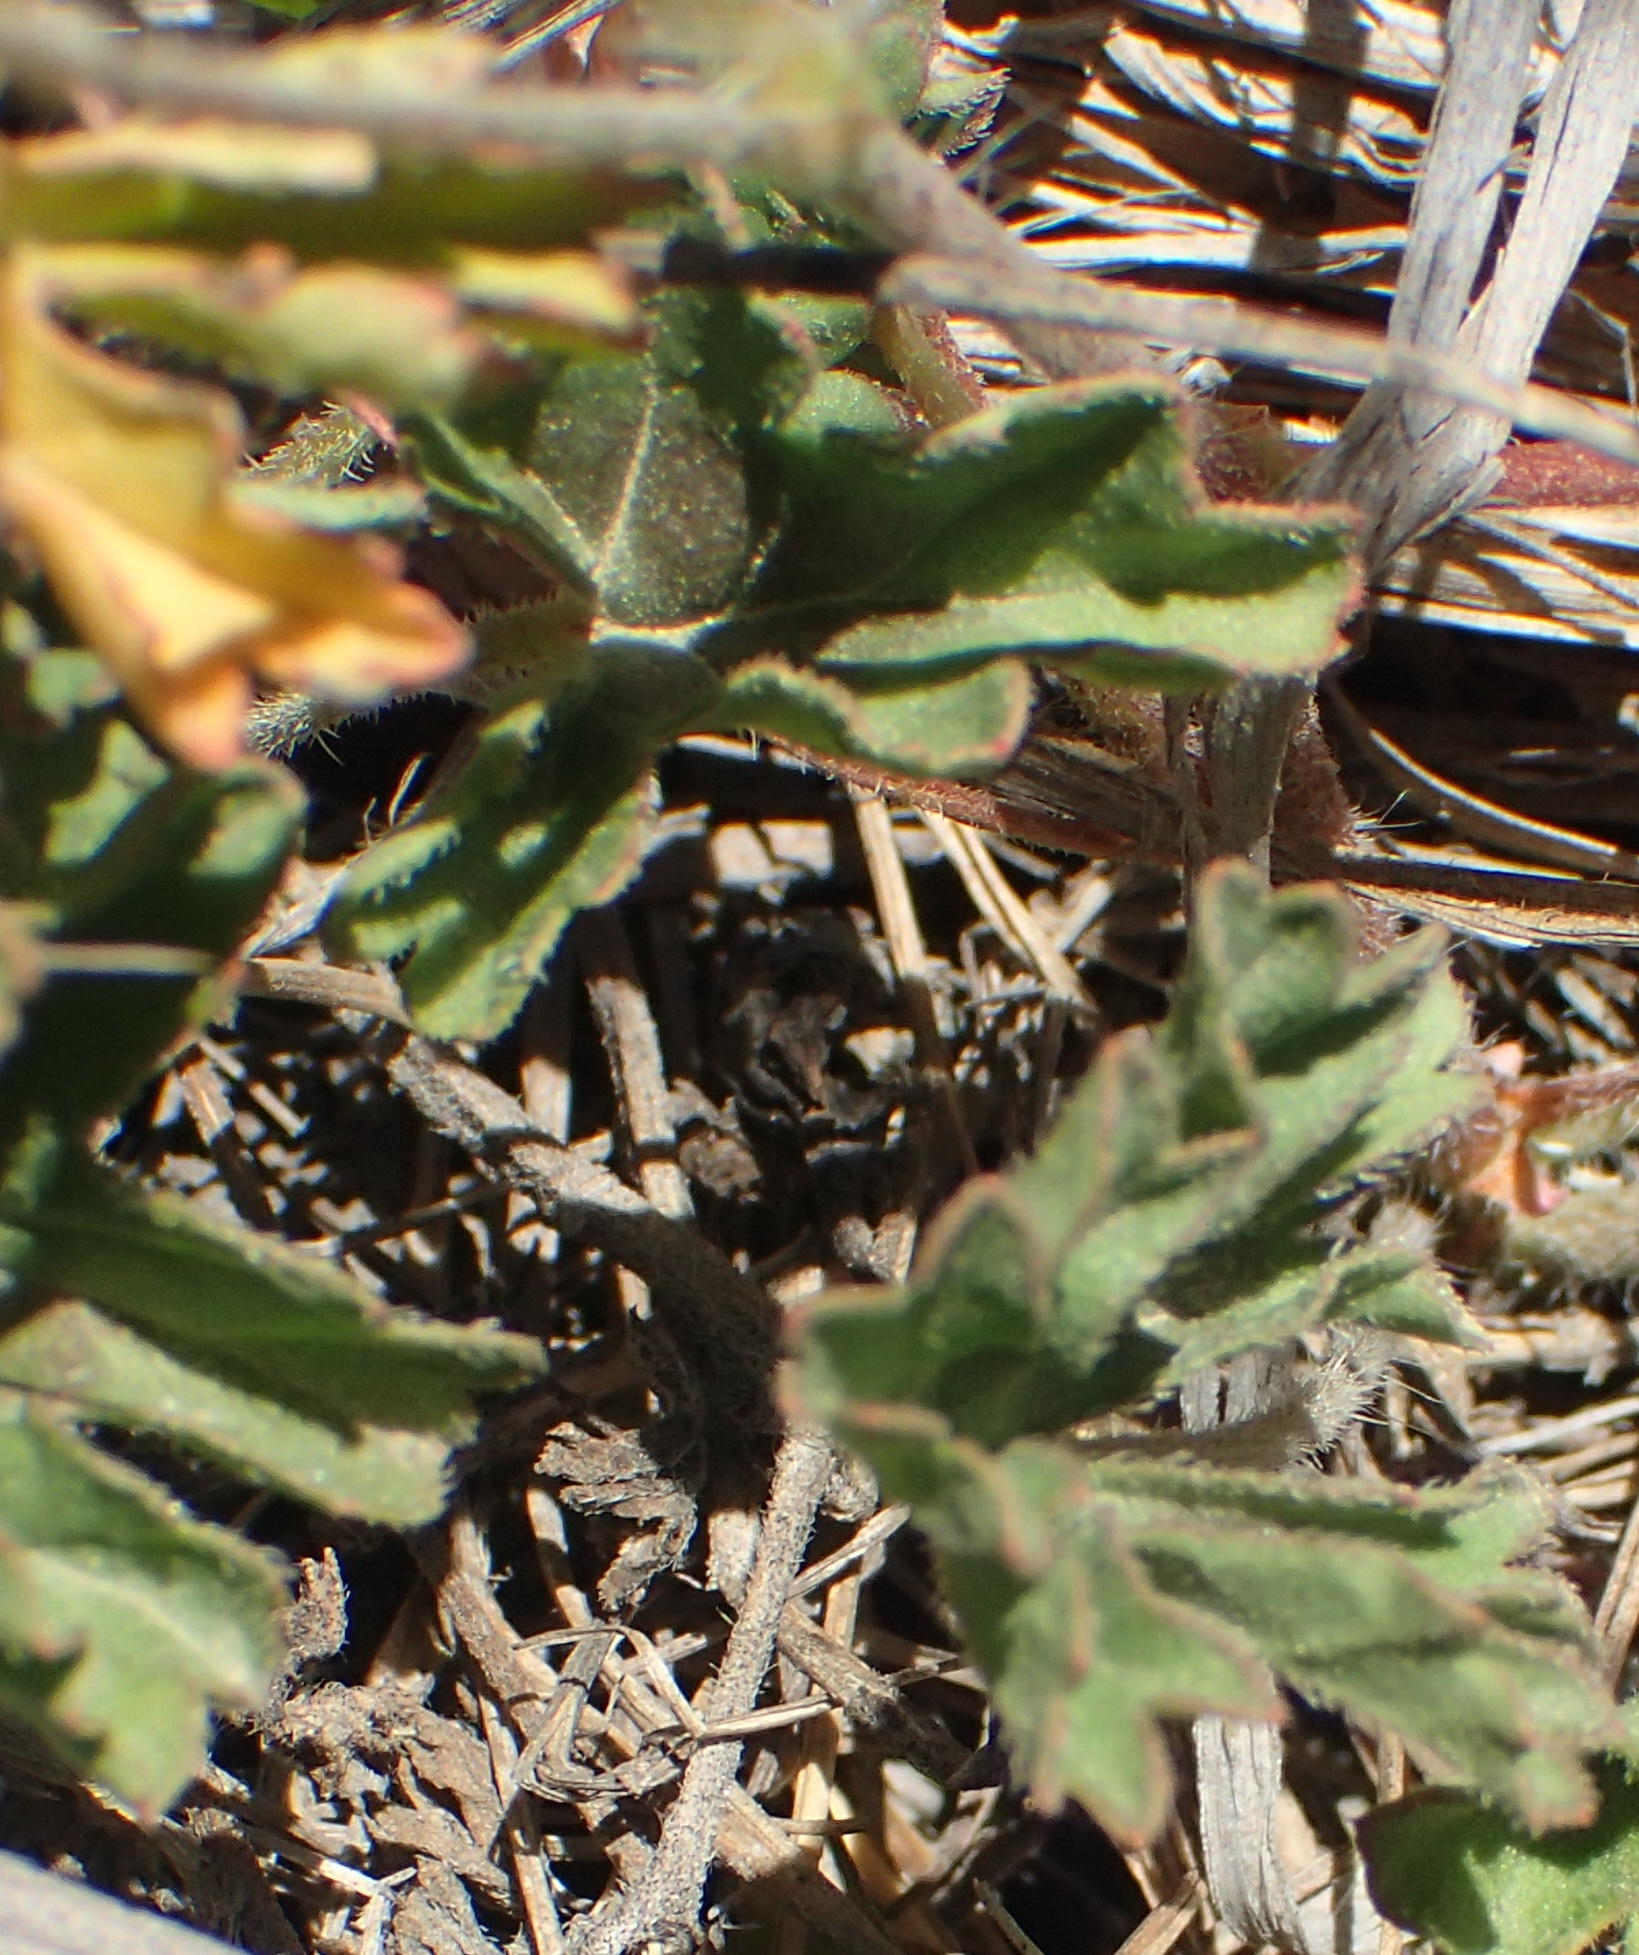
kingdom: Plantae
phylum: Tracheophyta
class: Magnoliopsida
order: Geraniales
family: Geraniaceae
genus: Pelargonium
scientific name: Pelargonium ranunculophyllum
